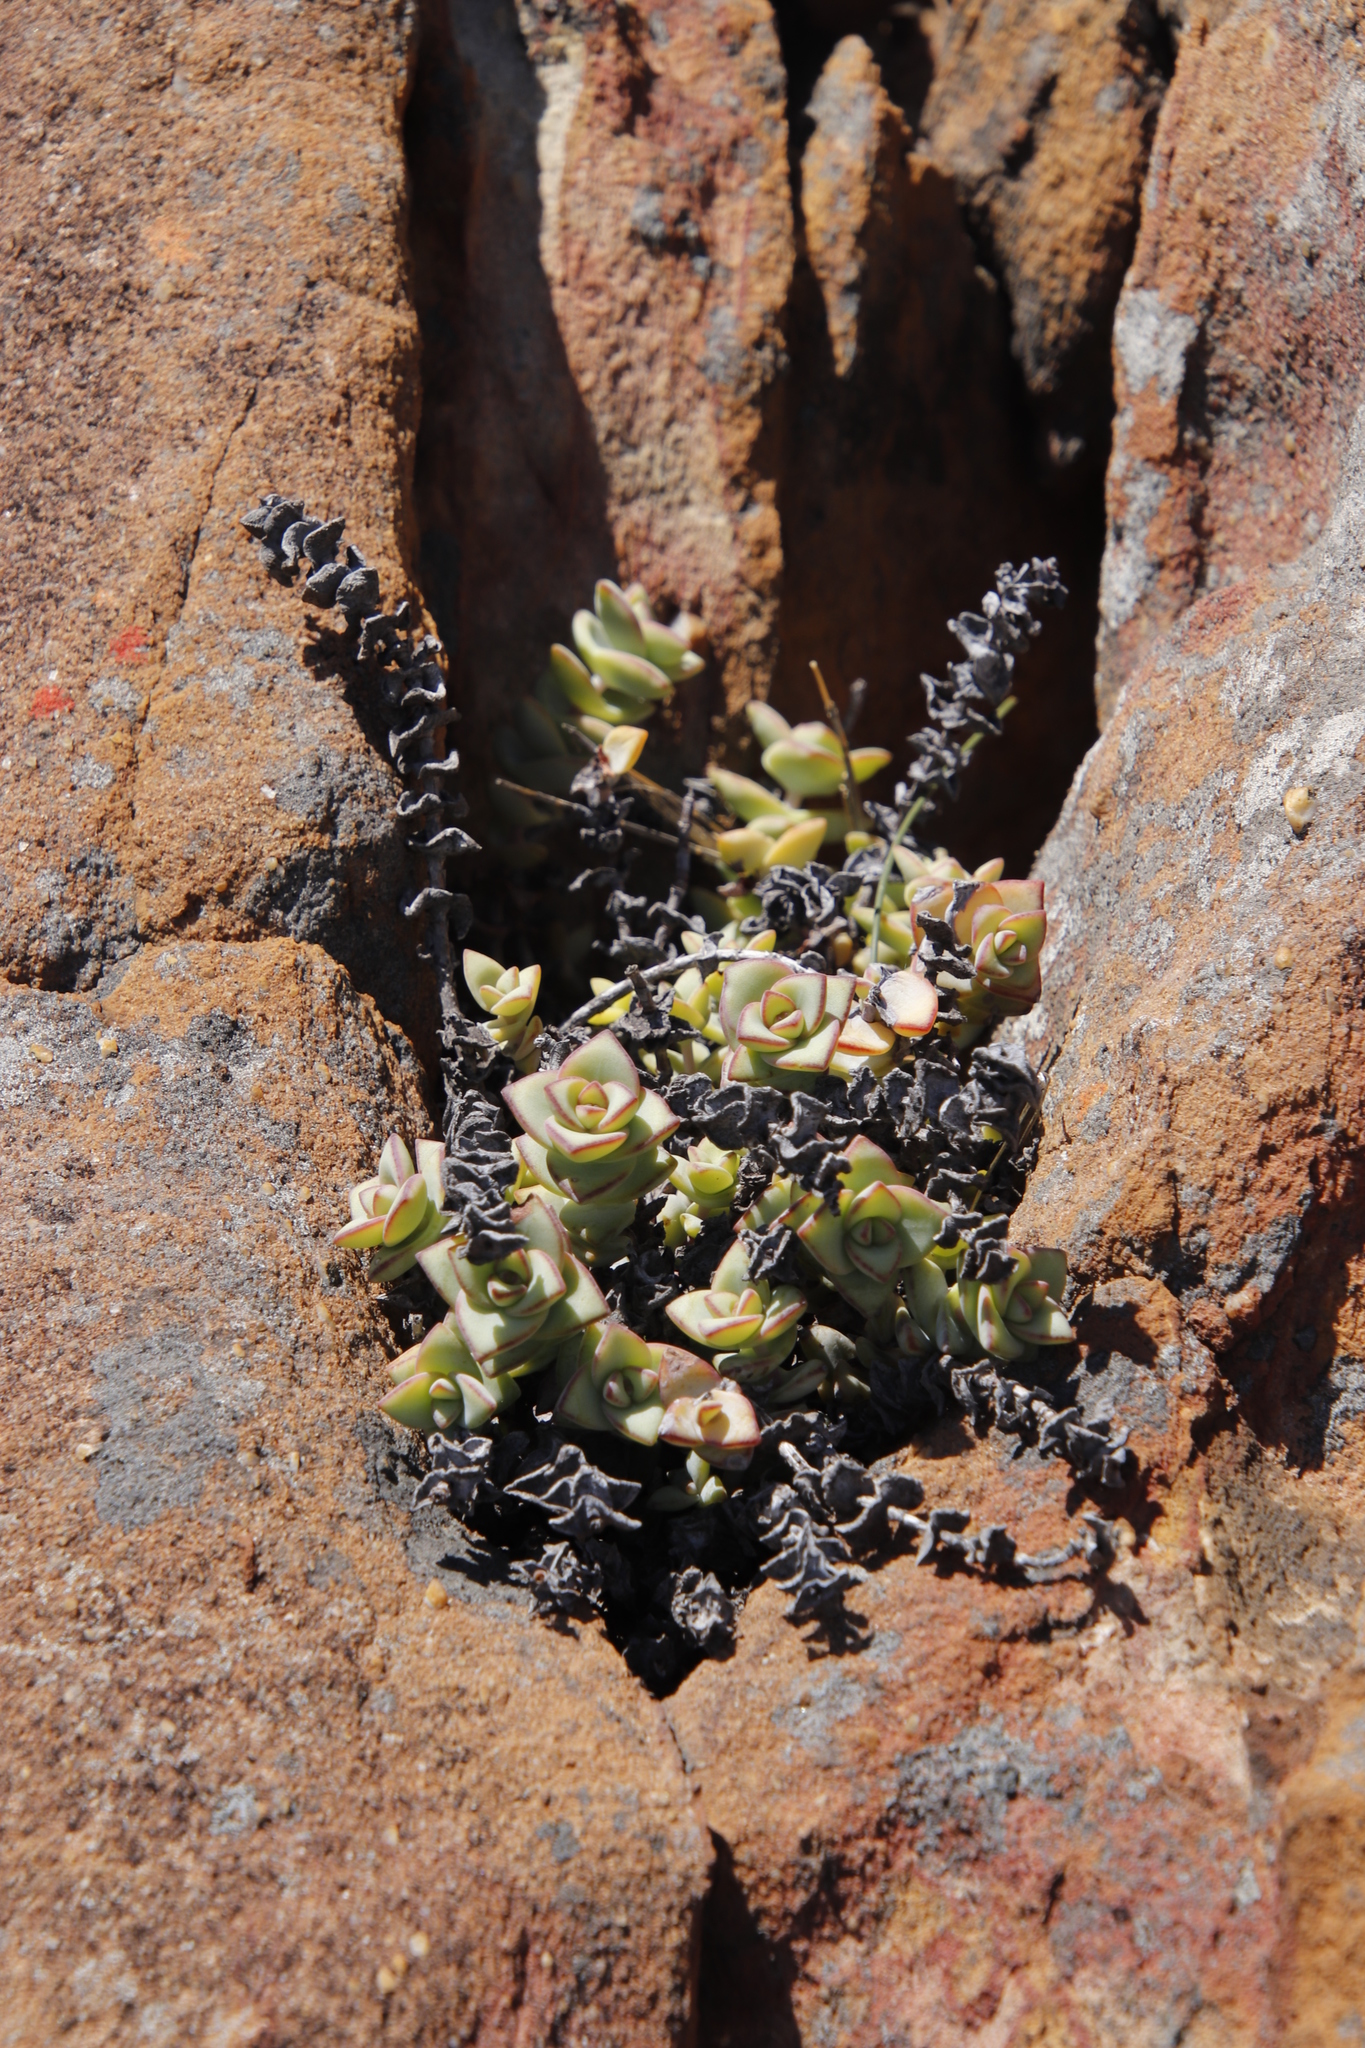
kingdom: Plantae
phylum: Tracheophyta
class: Magnoliopsida
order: Saxifragales
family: Crassulaceae
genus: Crassula
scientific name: Crassula rupestris
